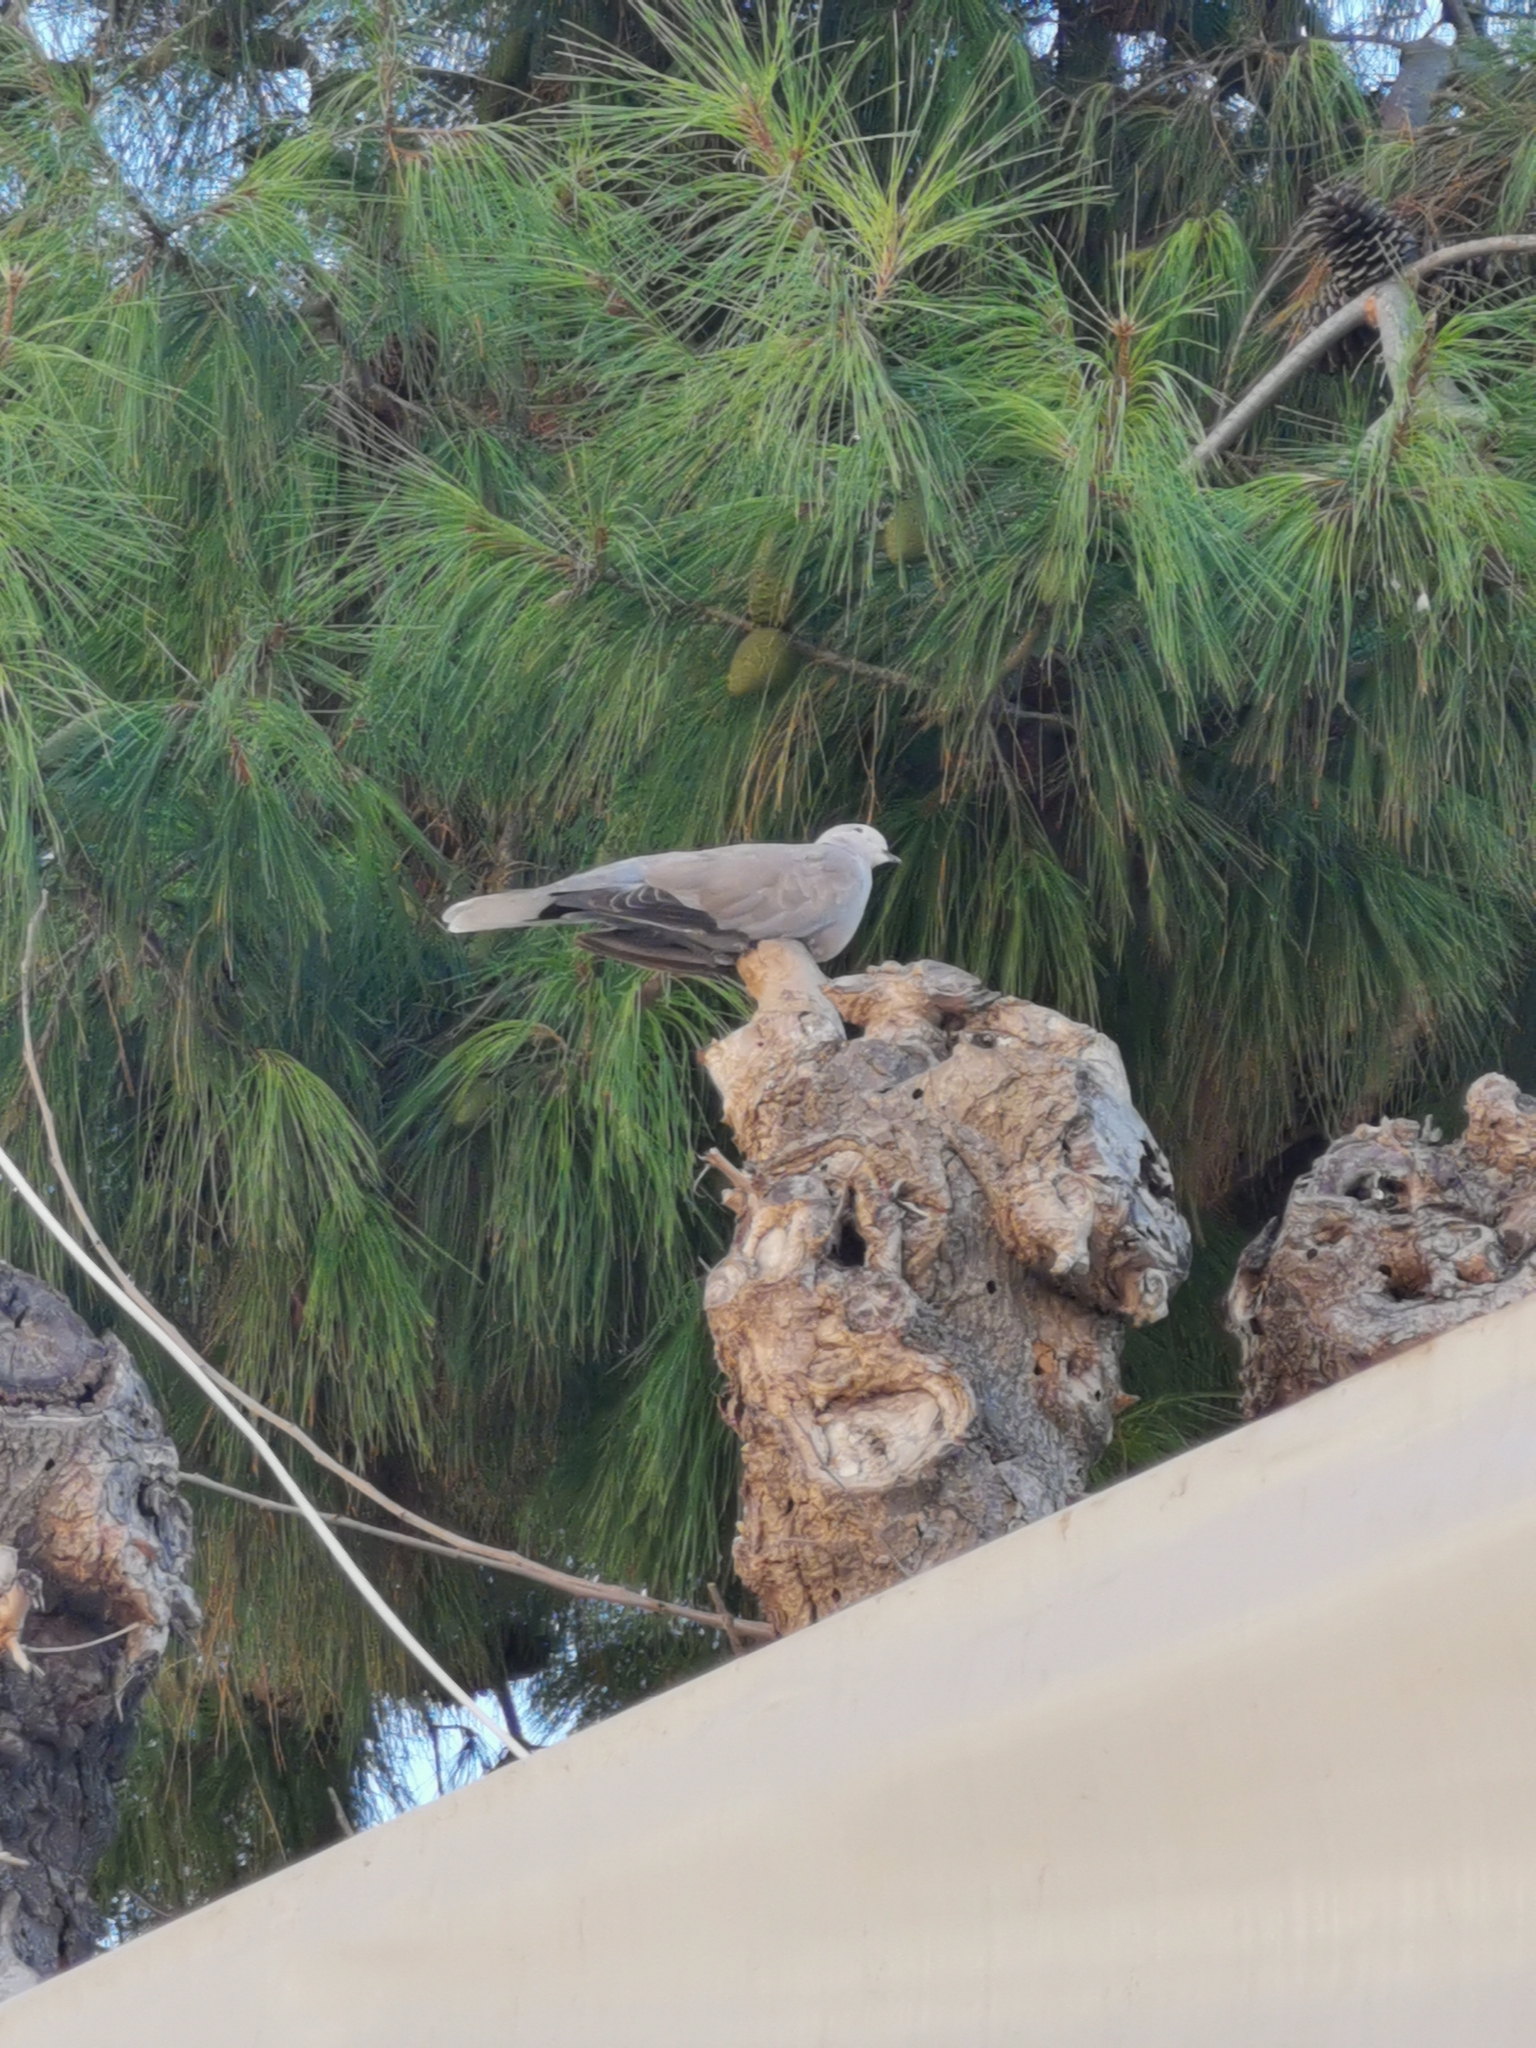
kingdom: Animalia
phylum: Chordata
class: Aves
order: Columbiformes
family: Columbidae
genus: Streptopelia
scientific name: Streptopelia decaocto
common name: Eurasian collared dove
